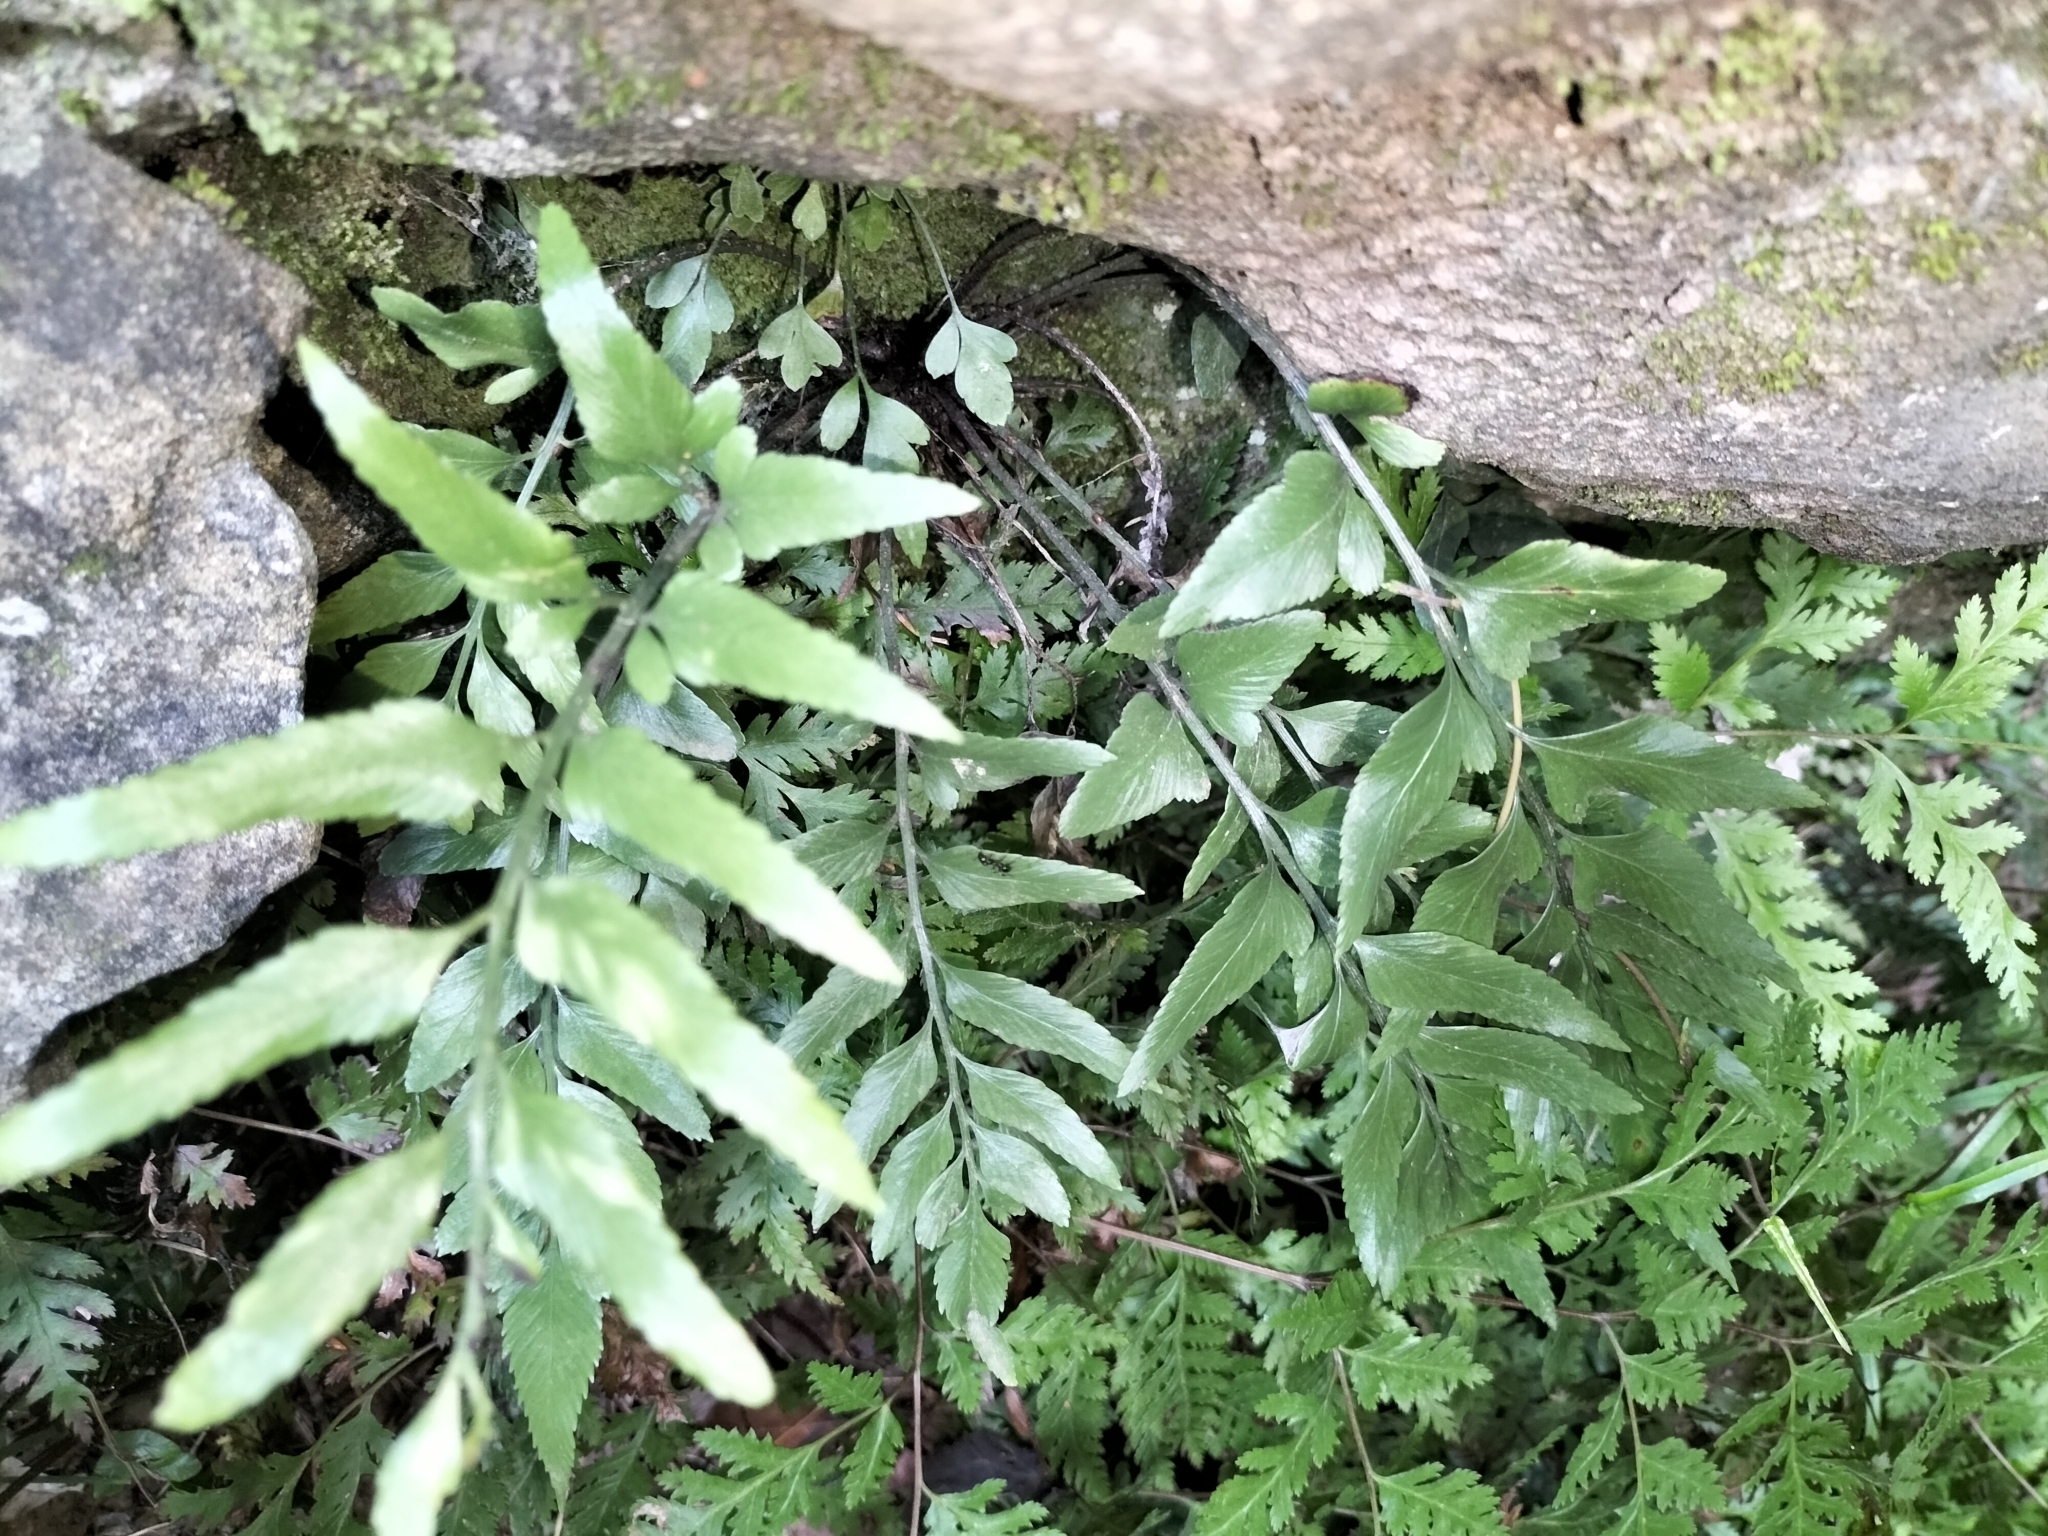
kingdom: Plantae
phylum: Tracheophyta
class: Polypodiopsida
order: Polypodiales
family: Aspleniaceae
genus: Asplenium
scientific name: Asplenium lyallii
